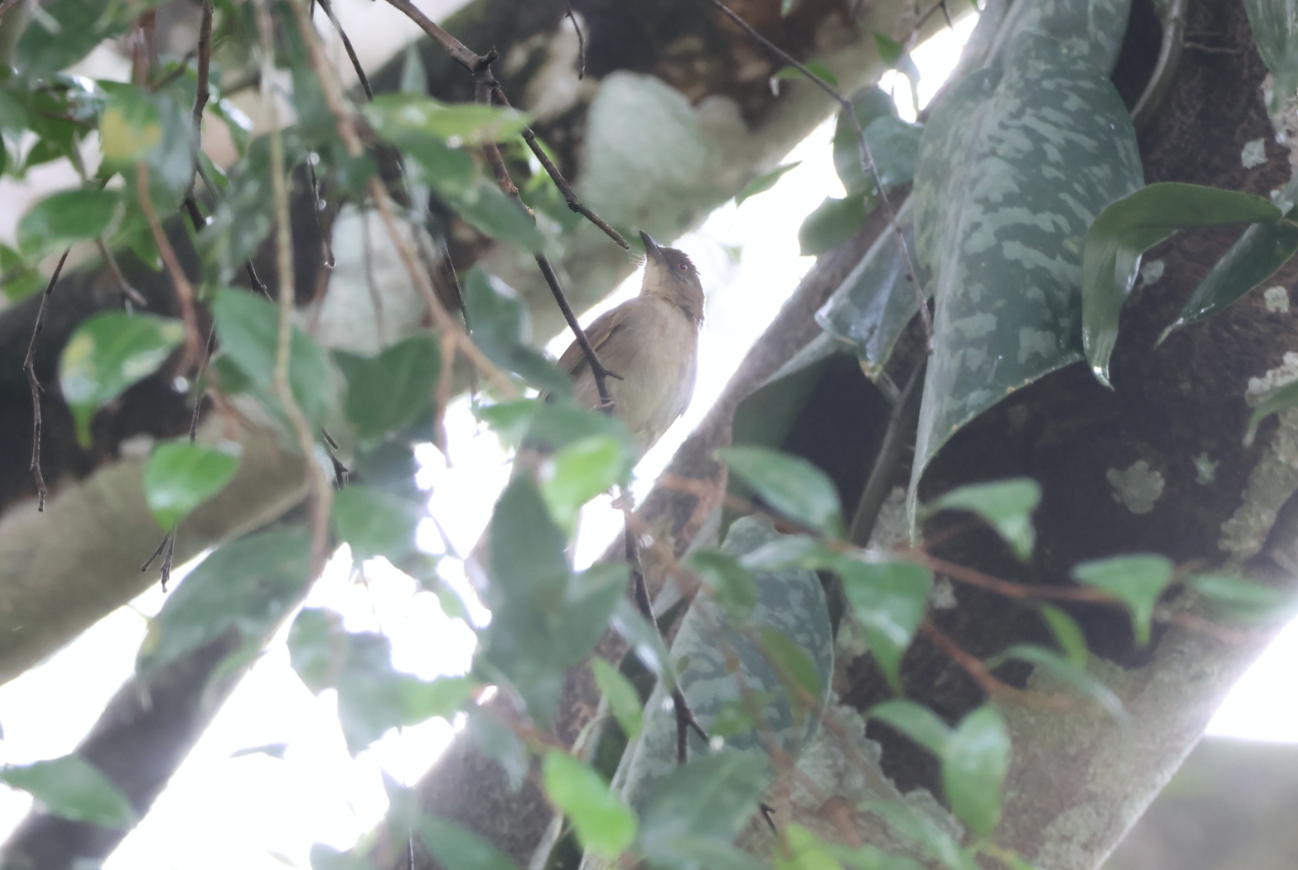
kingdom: Animalia
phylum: Chordata
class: Aves
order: Passeriformes
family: Pycnonotidae
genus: Pycnonotus
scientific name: Pycnonotus pseudosimplex
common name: Cream-eyed bulbul
